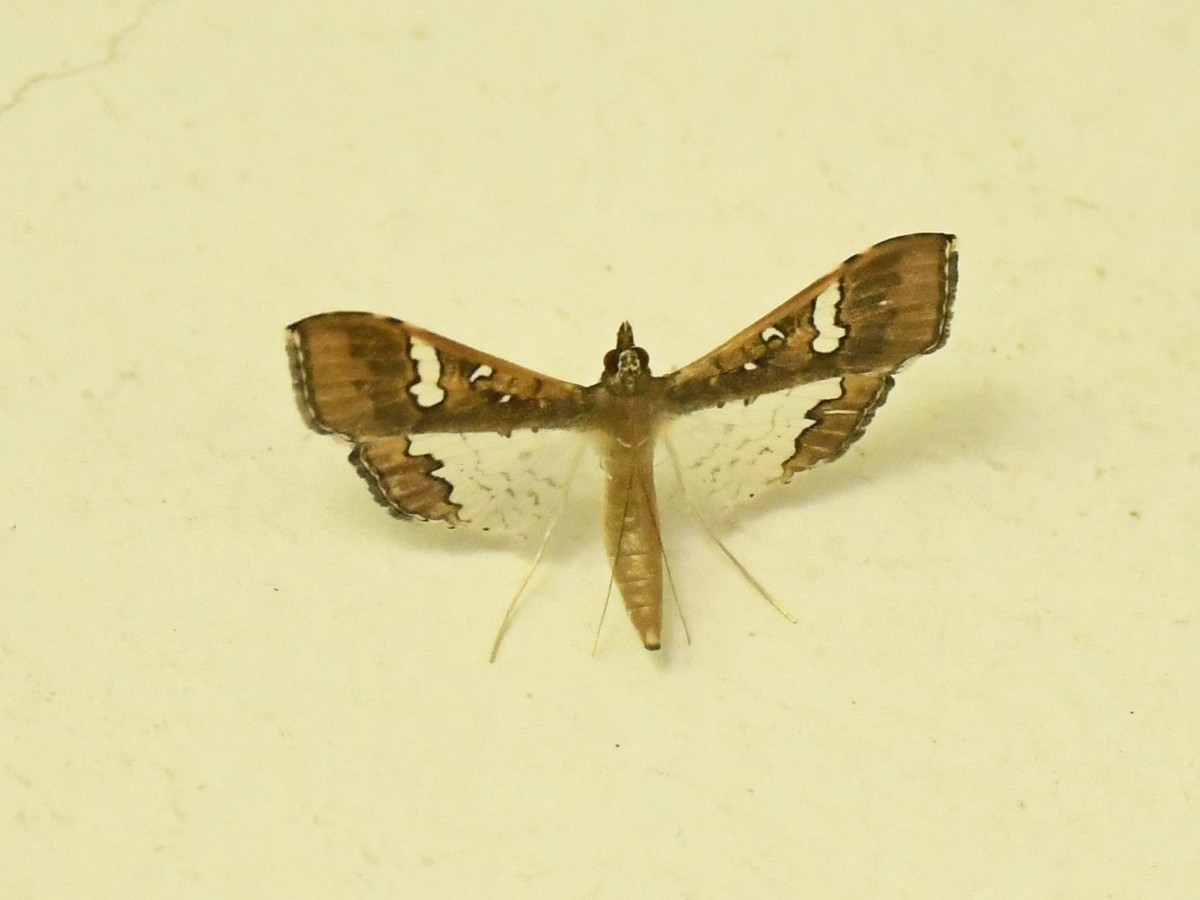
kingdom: Animalia
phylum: Arthropoda
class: Insecta
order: Lepidoptera
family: Crambidae
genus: Maruca
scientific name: Maruca vitrata
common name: Maruca pod borer
